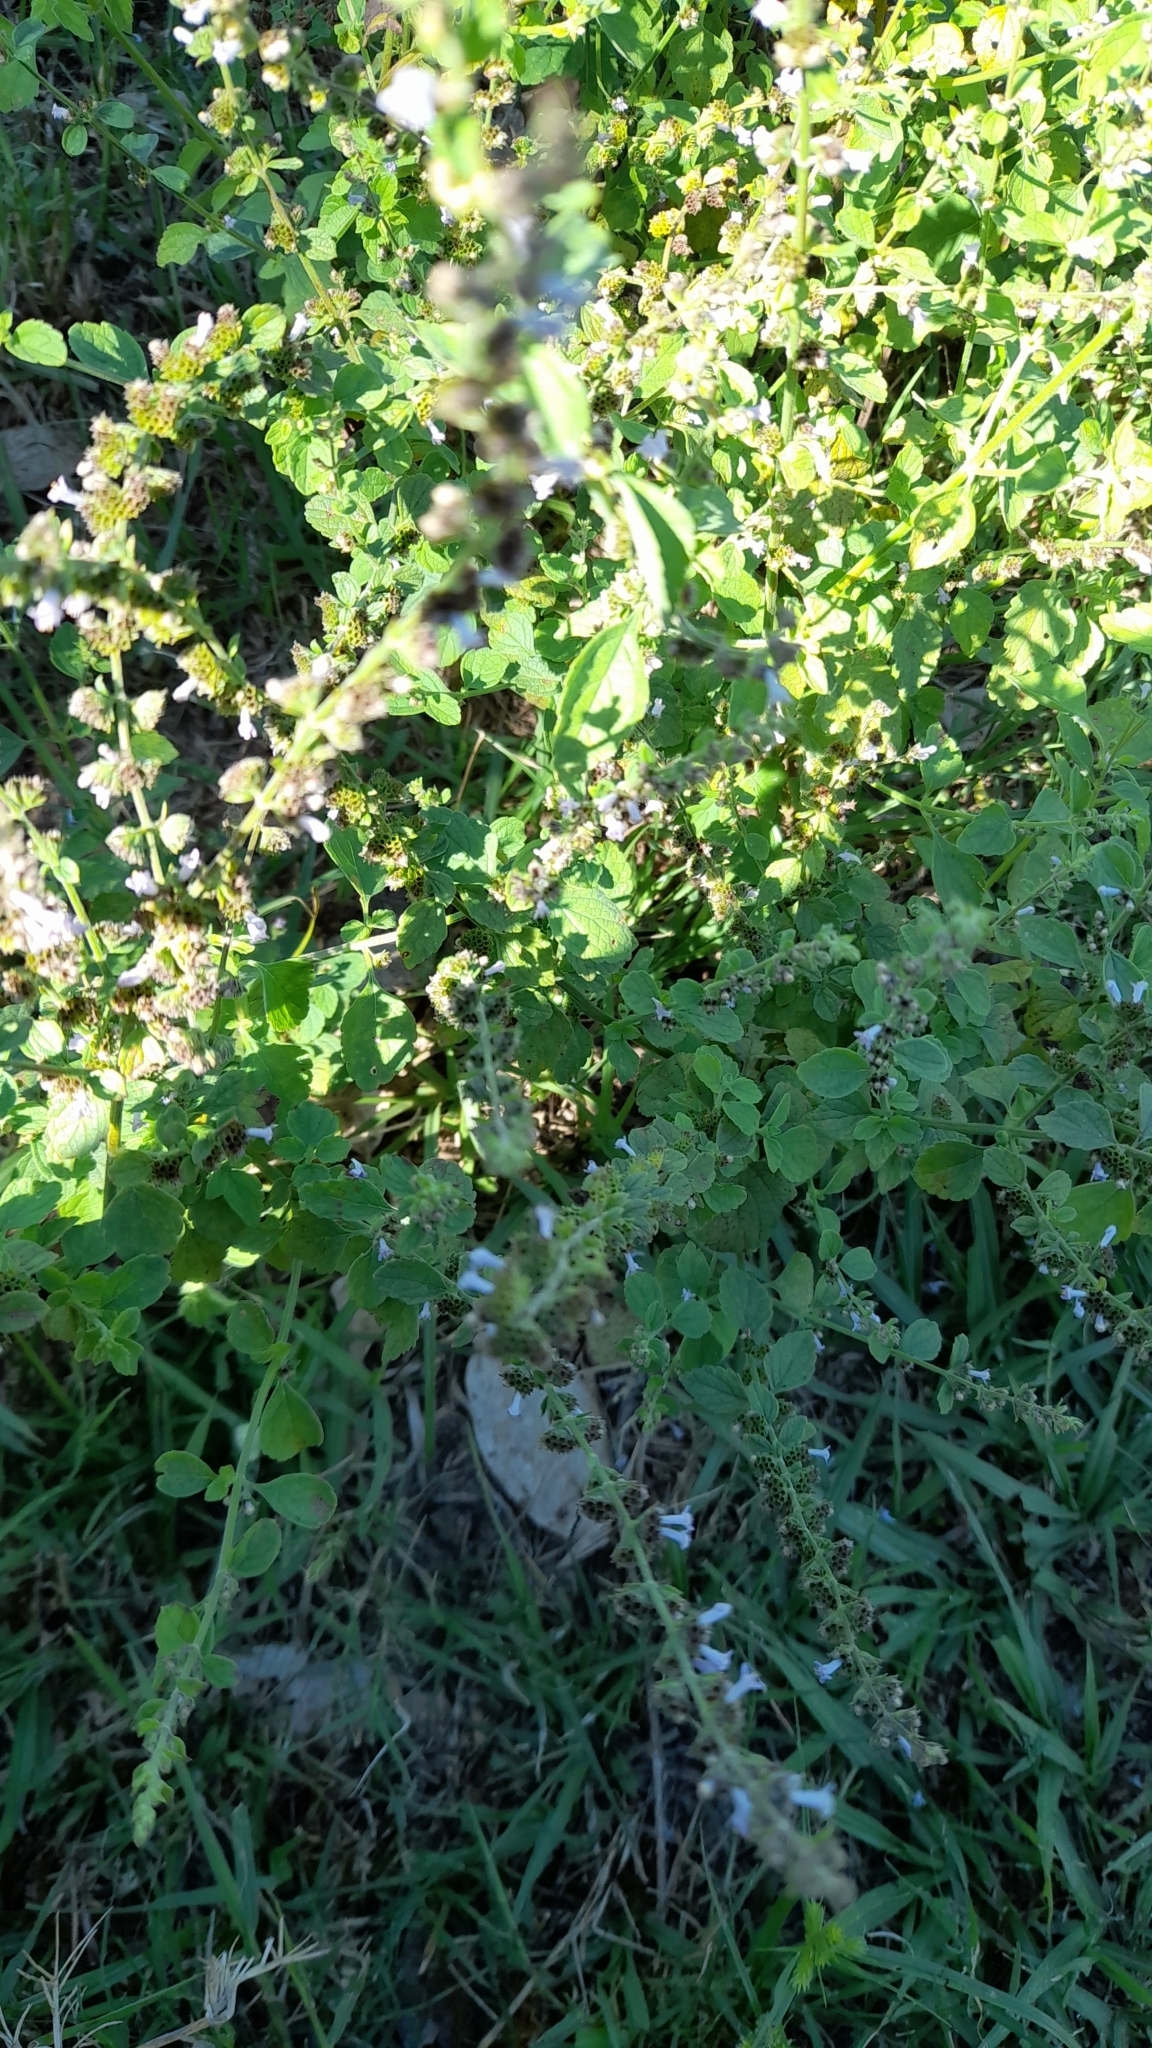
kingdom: Plantae
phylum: Tracheophyta
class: Magnoliopsida
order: Lamiales
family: Lamiaceae
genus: Cantinoa
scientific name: Cantinoa mutabilis
